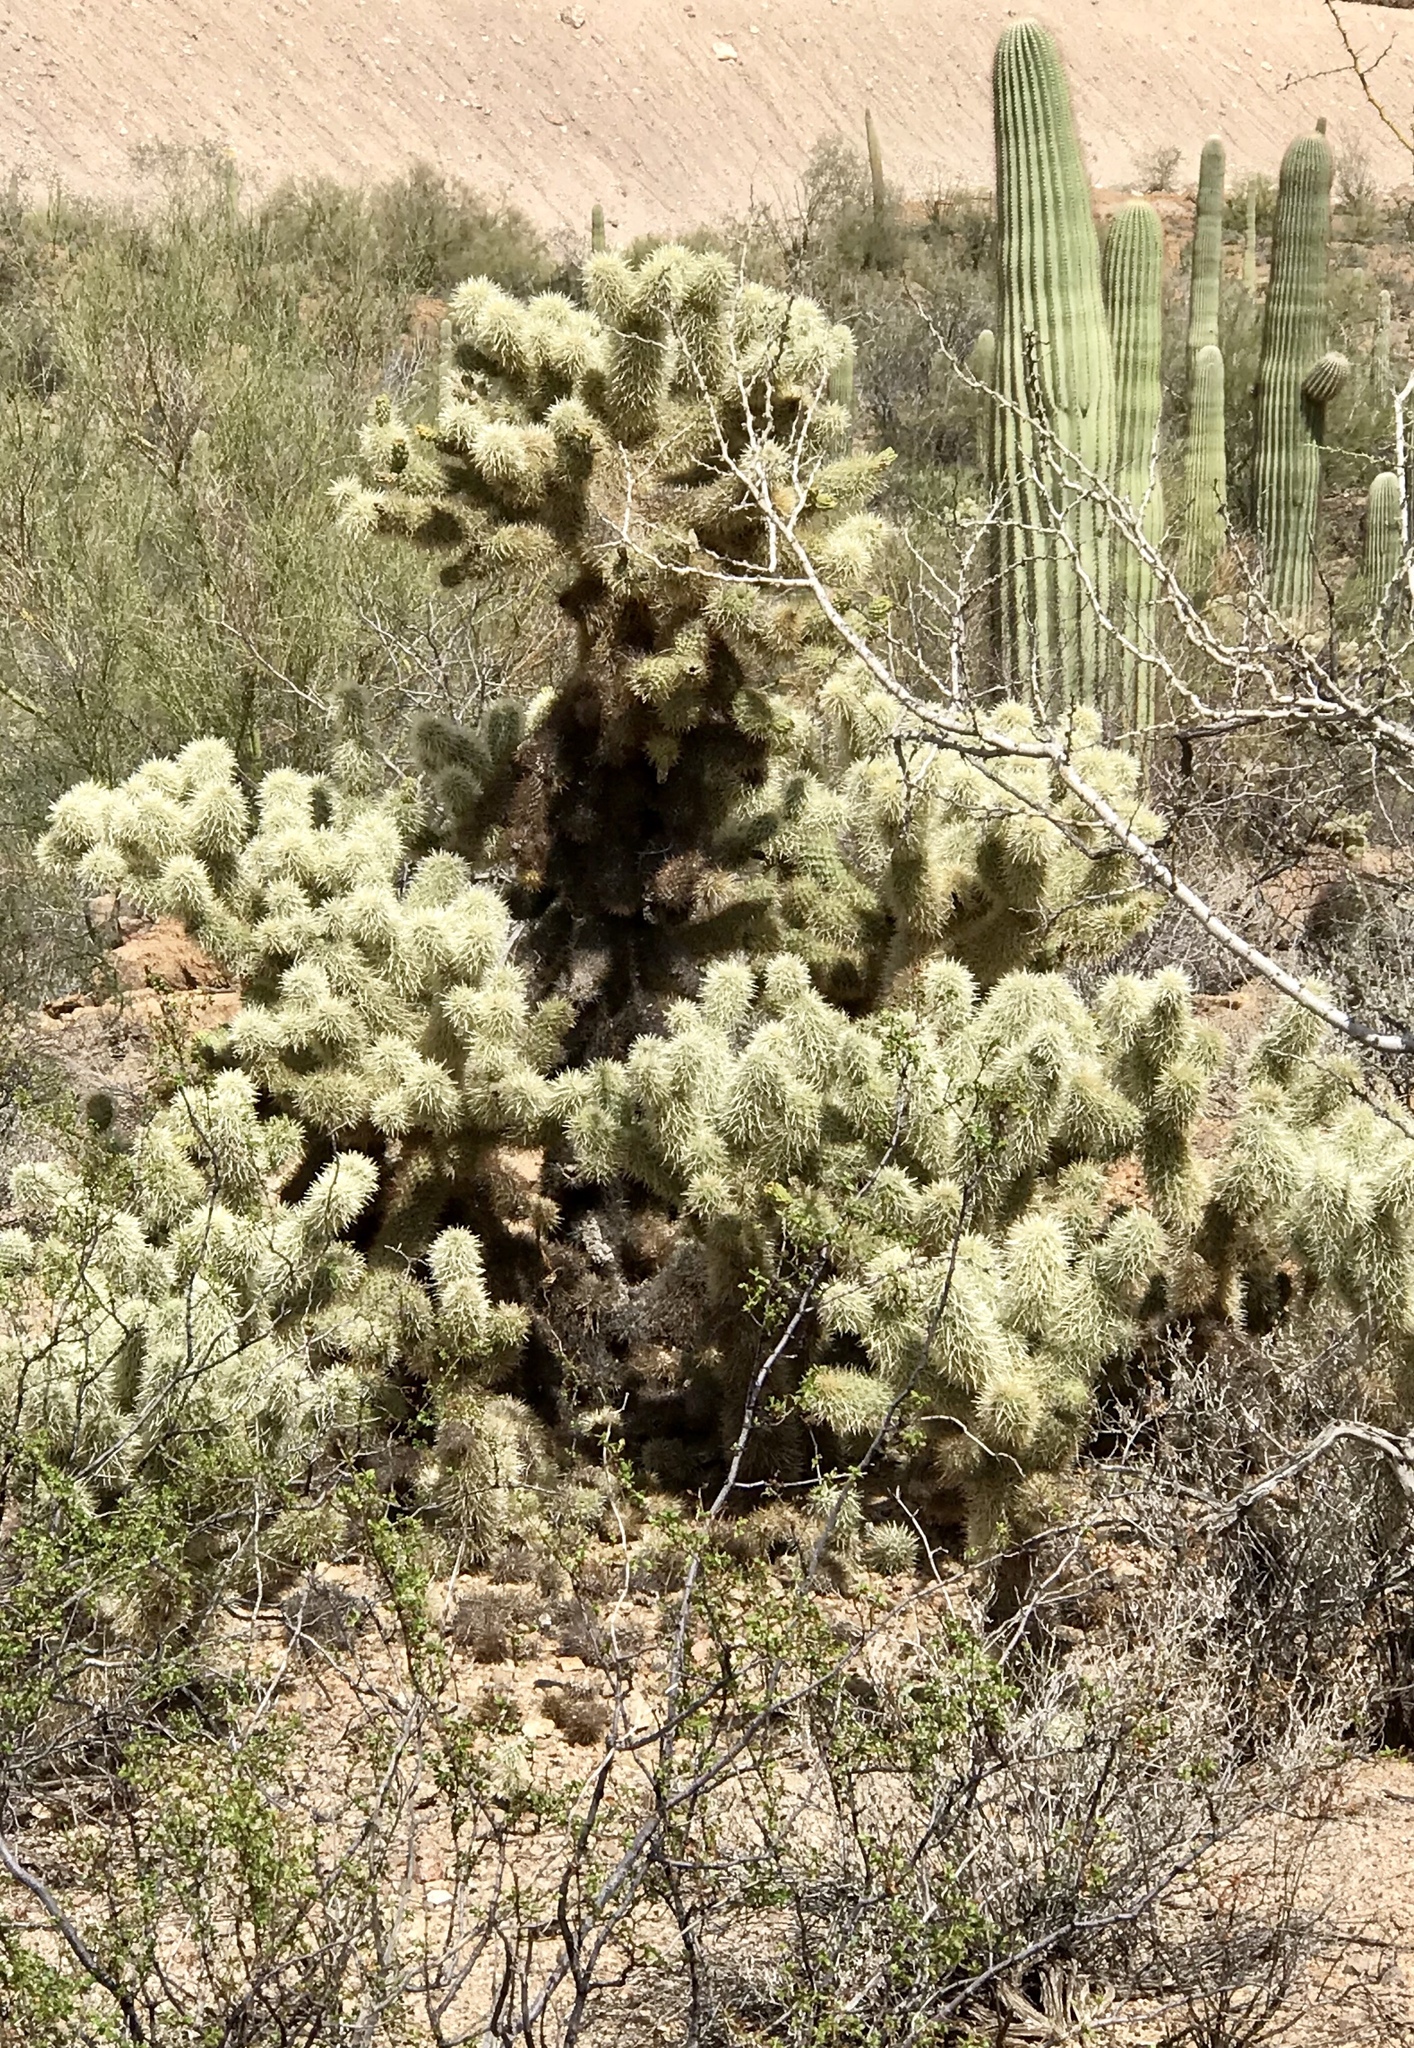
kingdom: Plantae
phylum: Tracheophyta
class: Magnoliopsida
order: Caryophyllales
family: Cactaceae
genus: Cylindropuntia
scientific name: Cylindropuntia fosbergii
